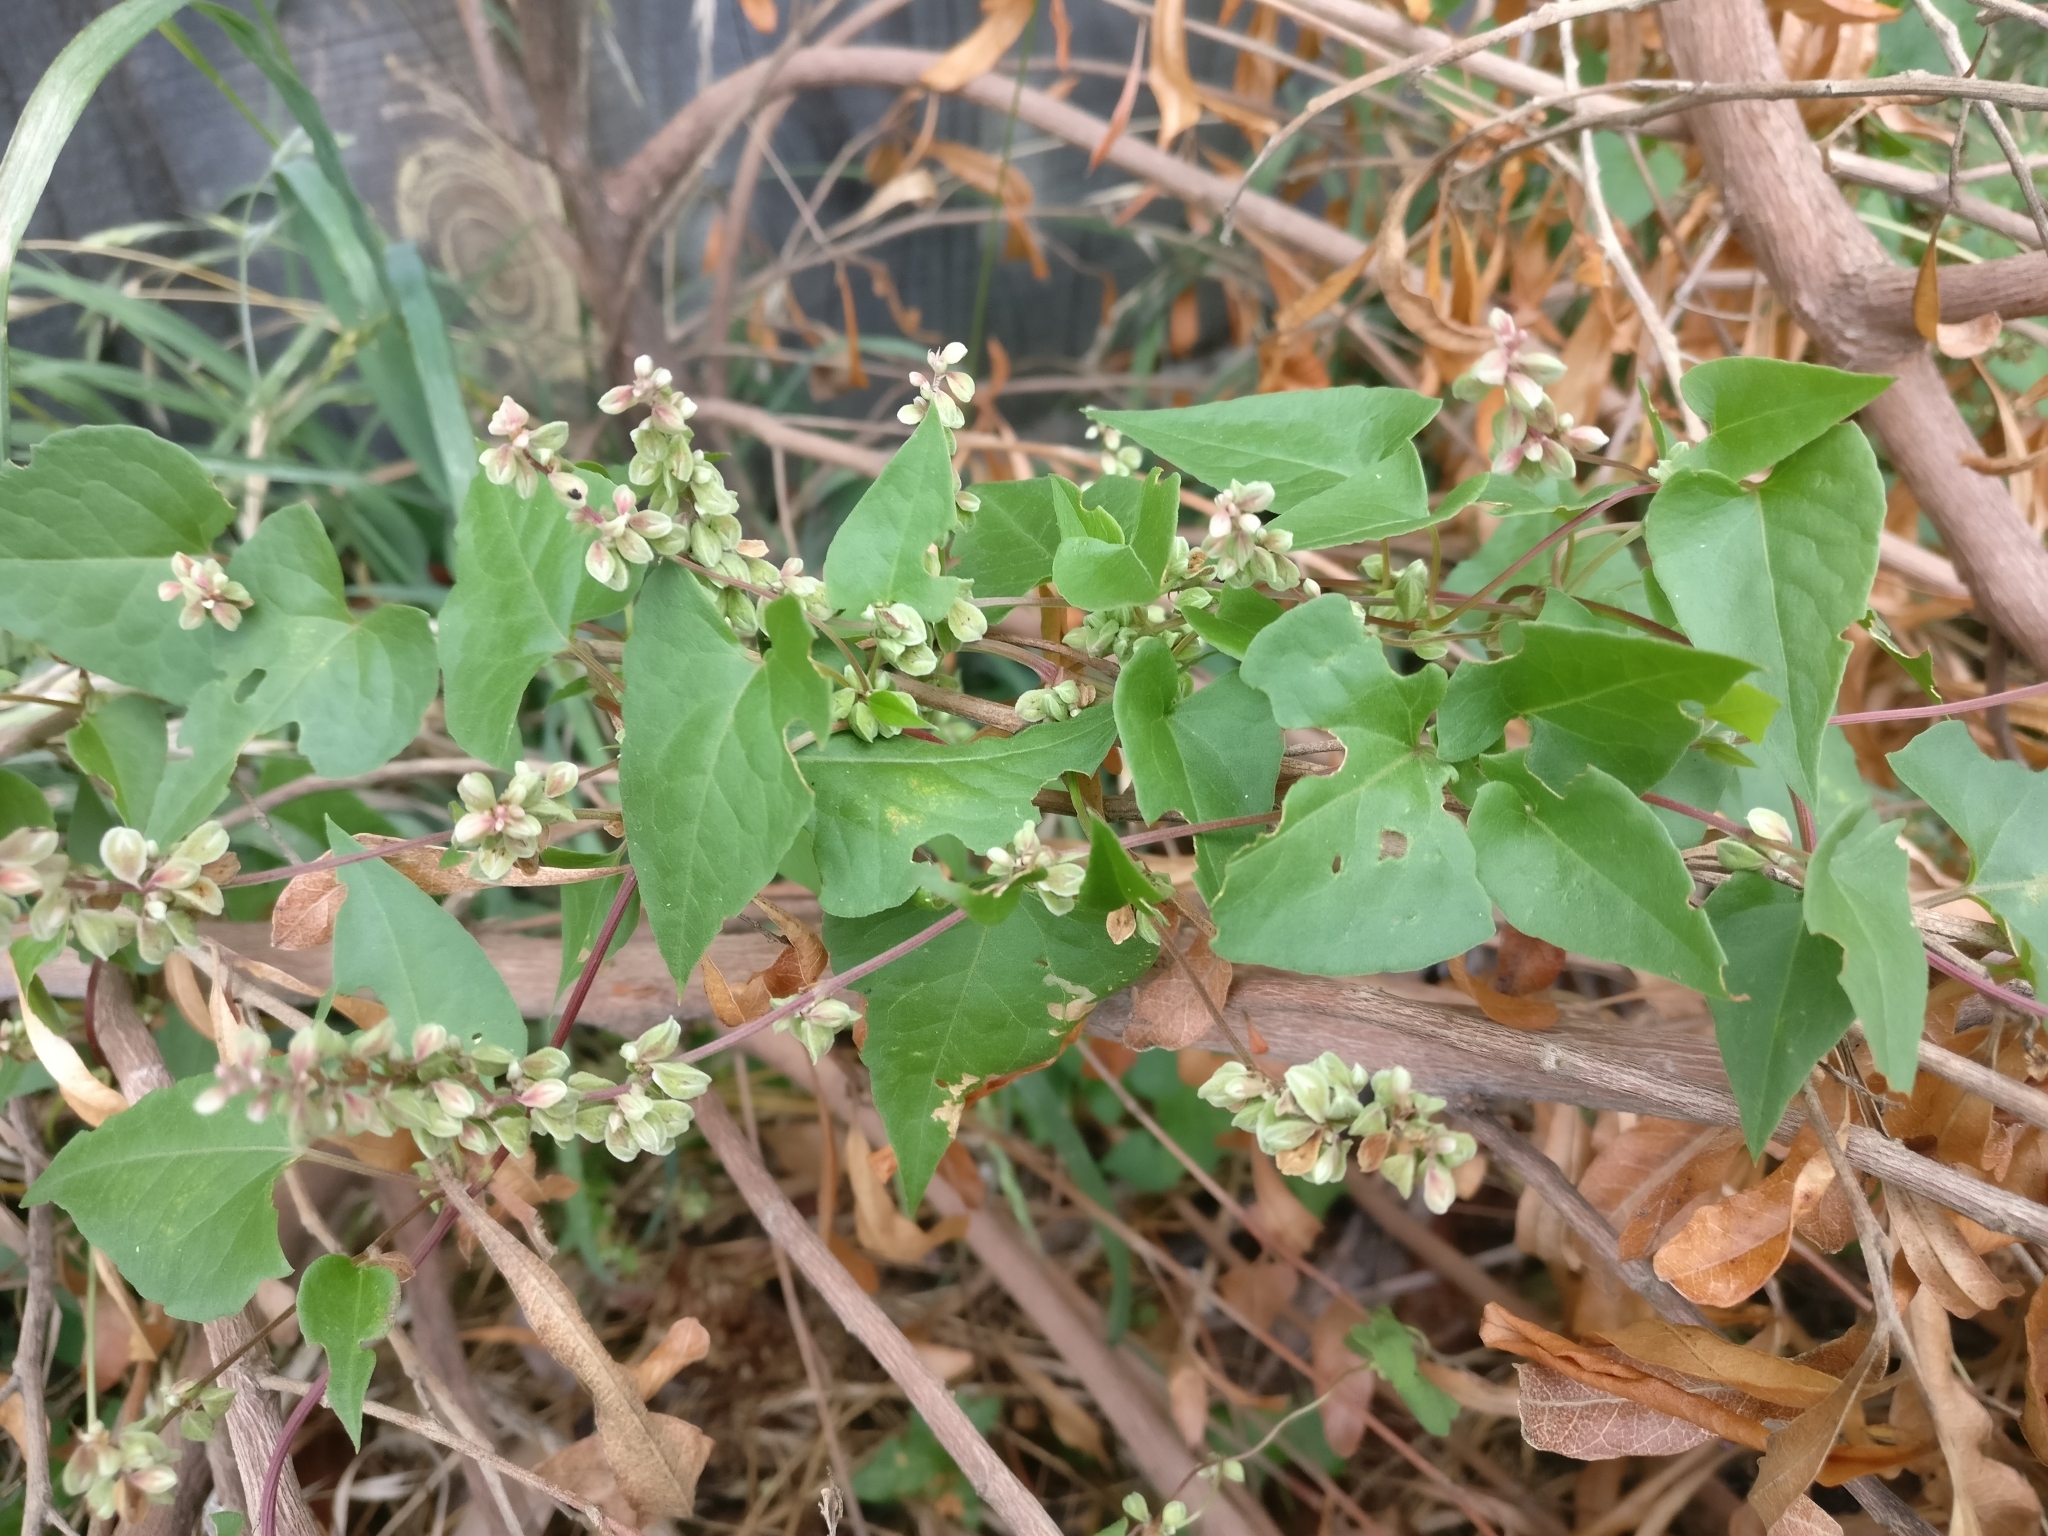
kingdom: Plantae
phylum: Tracheophyta
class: Magnoliopsida
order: Caryophyllales
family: Polygonaceae
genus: Fallopia
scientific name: Fallopia convolvulus
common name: Black bindweed
